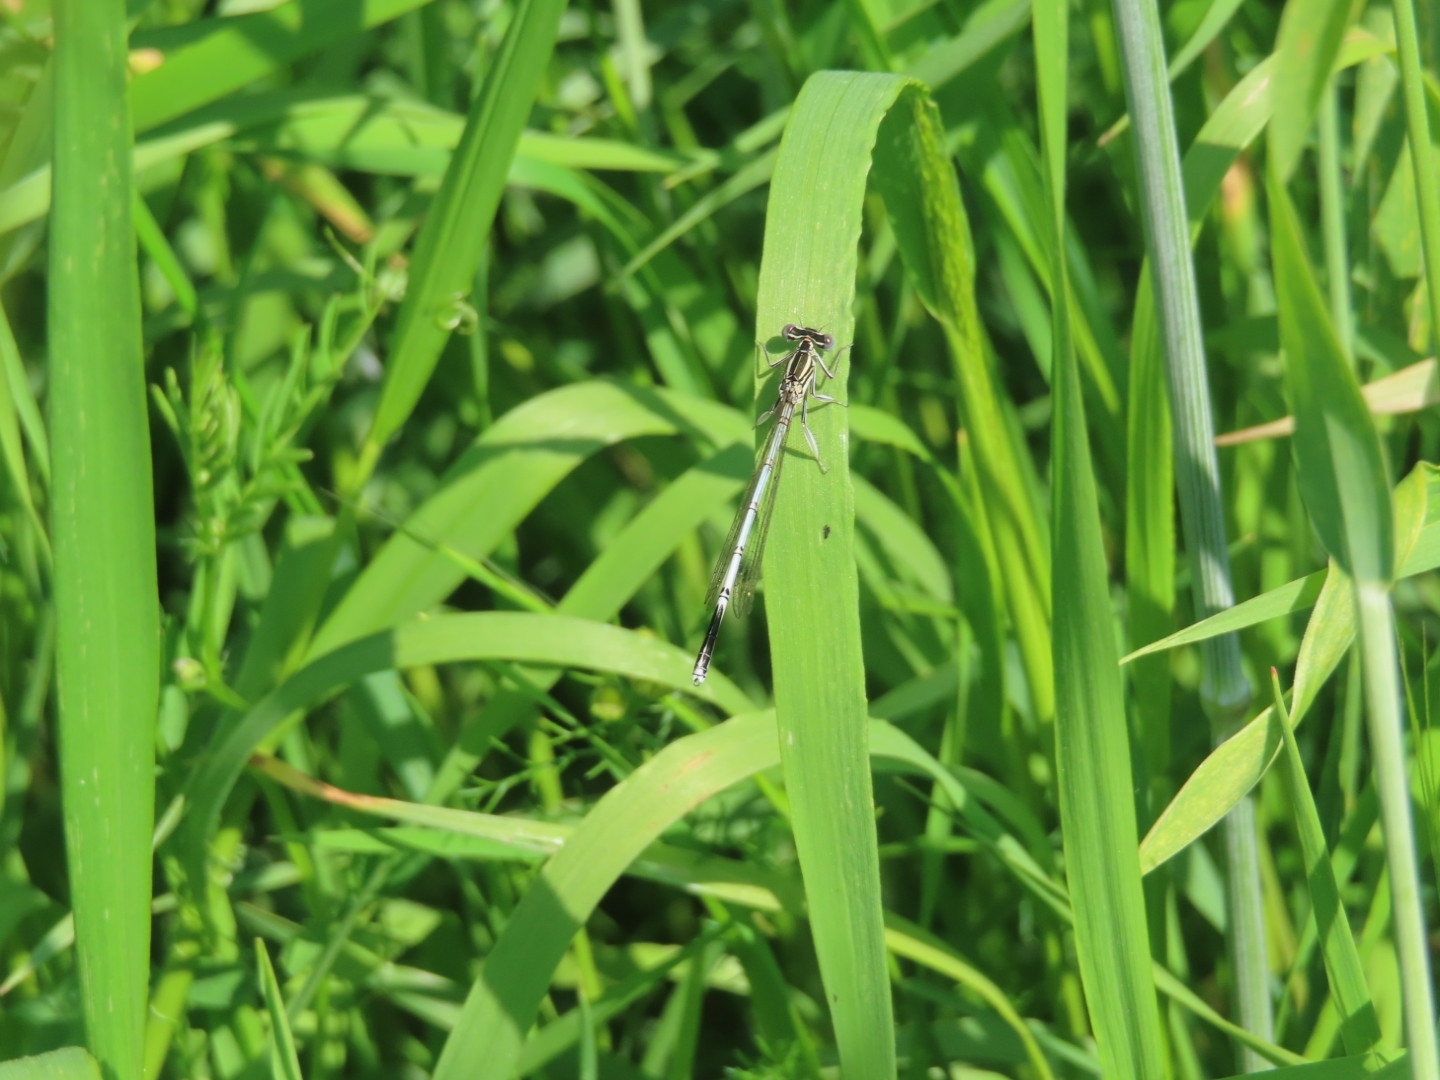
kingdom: Animalia
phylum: Arthropoda
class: Insecta
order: Odonata
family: Platycnemididae
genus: Platycnemis
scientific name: Platycnemis pennipes
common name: White-legged damselfly
